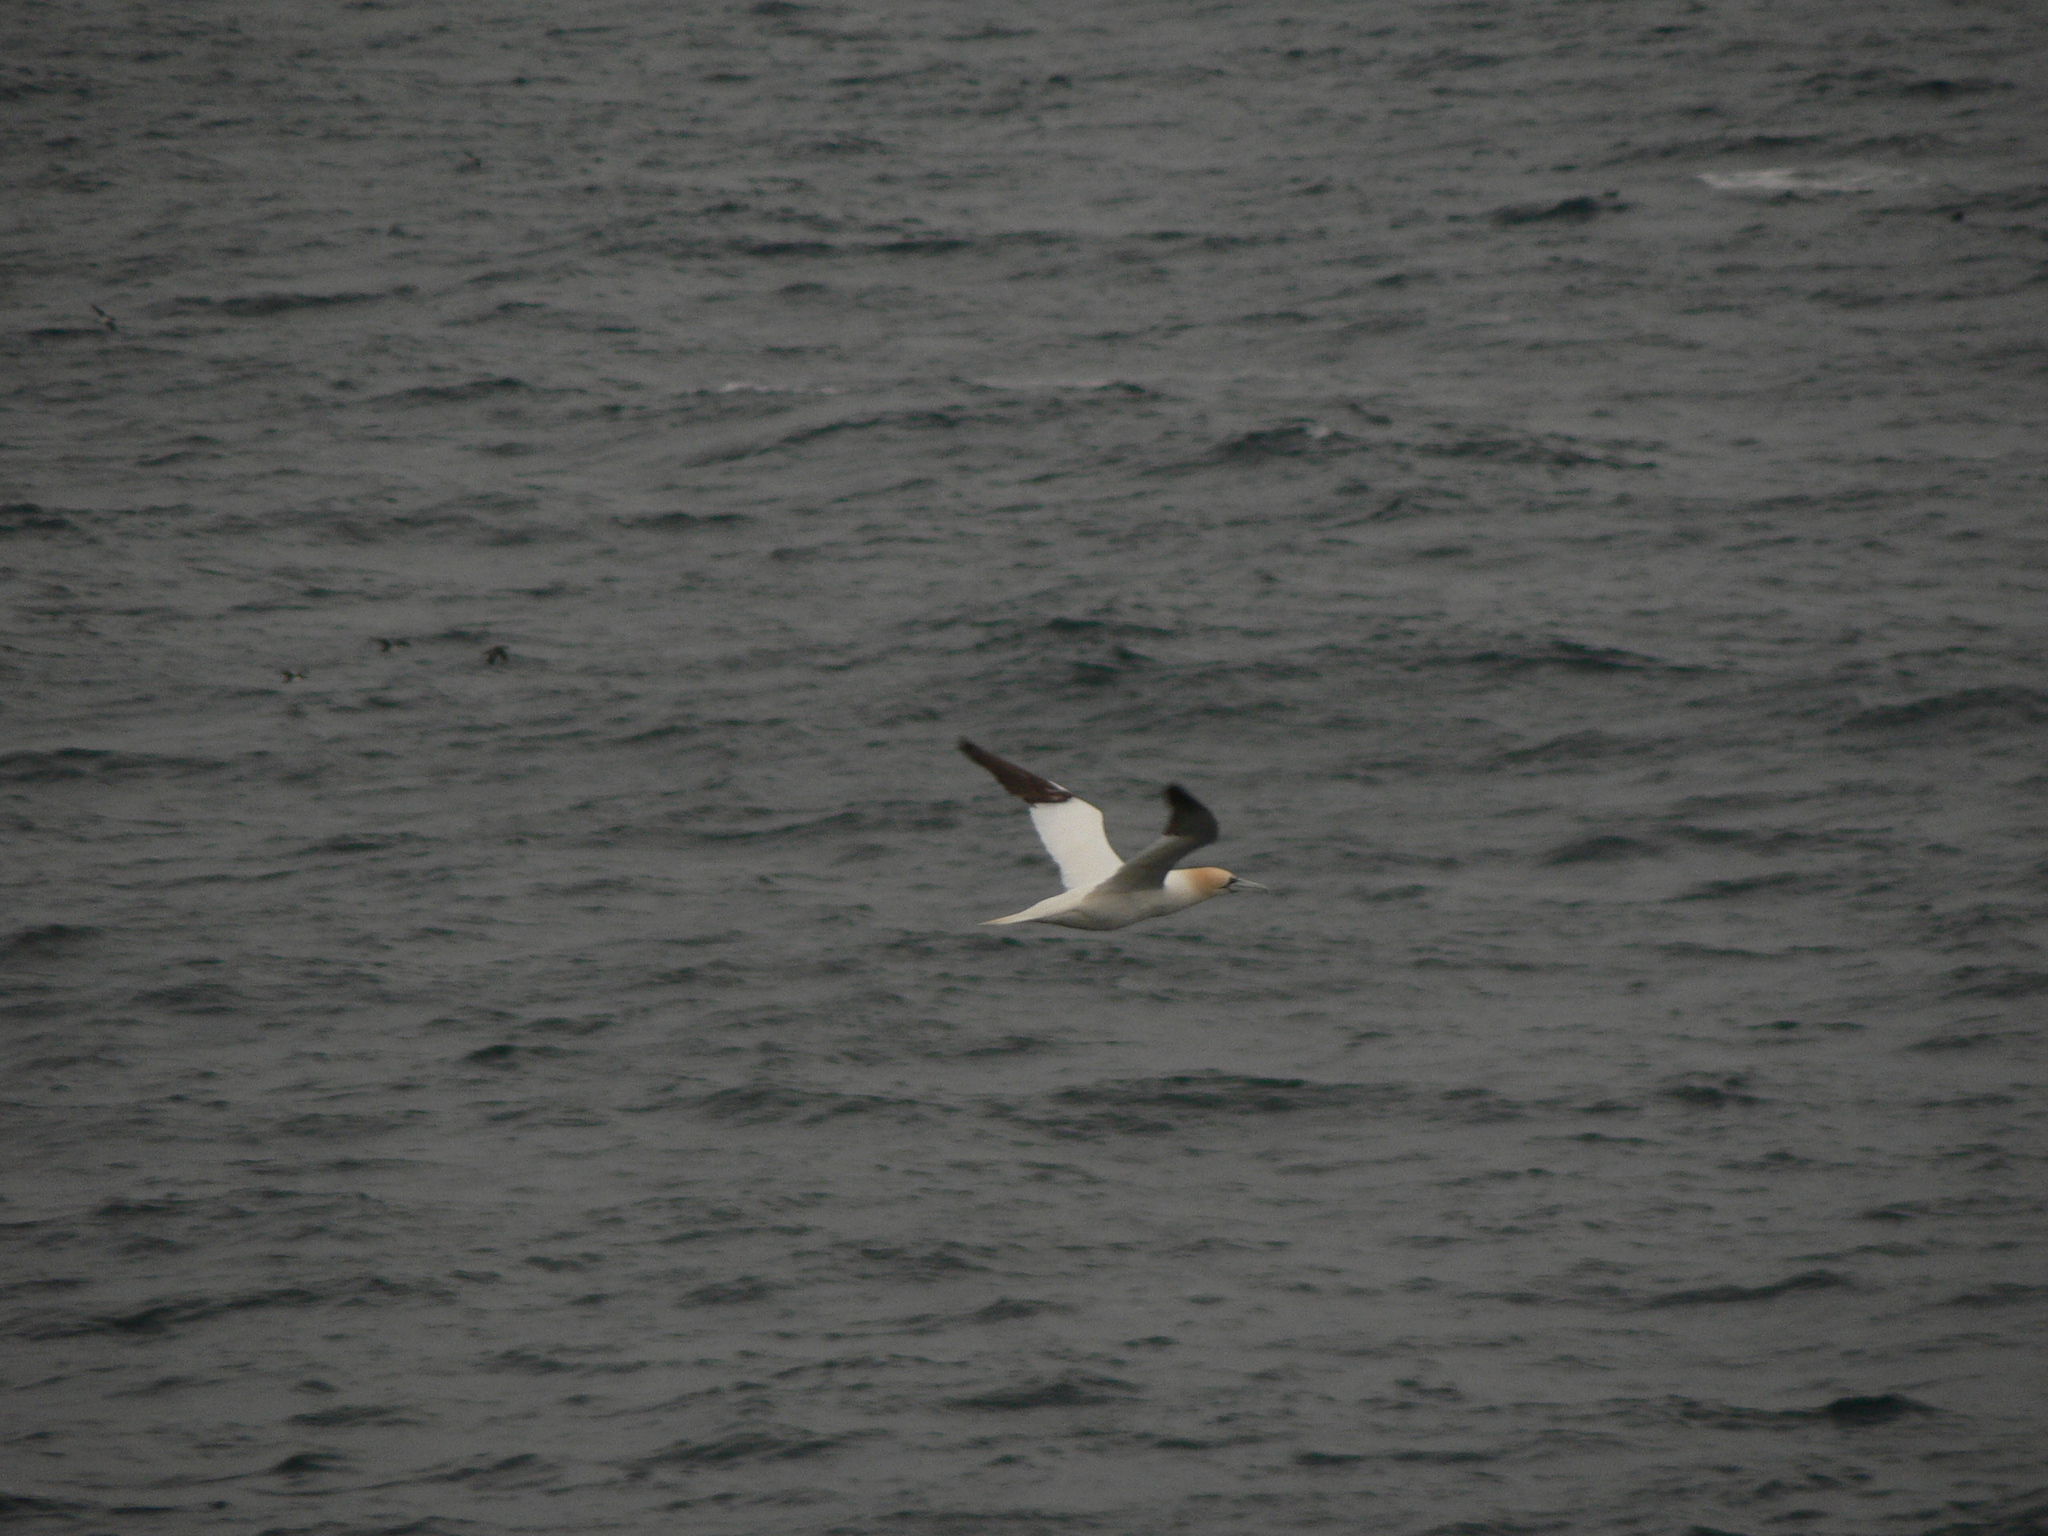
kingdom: Animalia
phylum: Chordata
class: Aves
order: Suliformes
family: Sulidae
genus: Morus
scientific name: Morus bassanus
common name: Northern gannet
